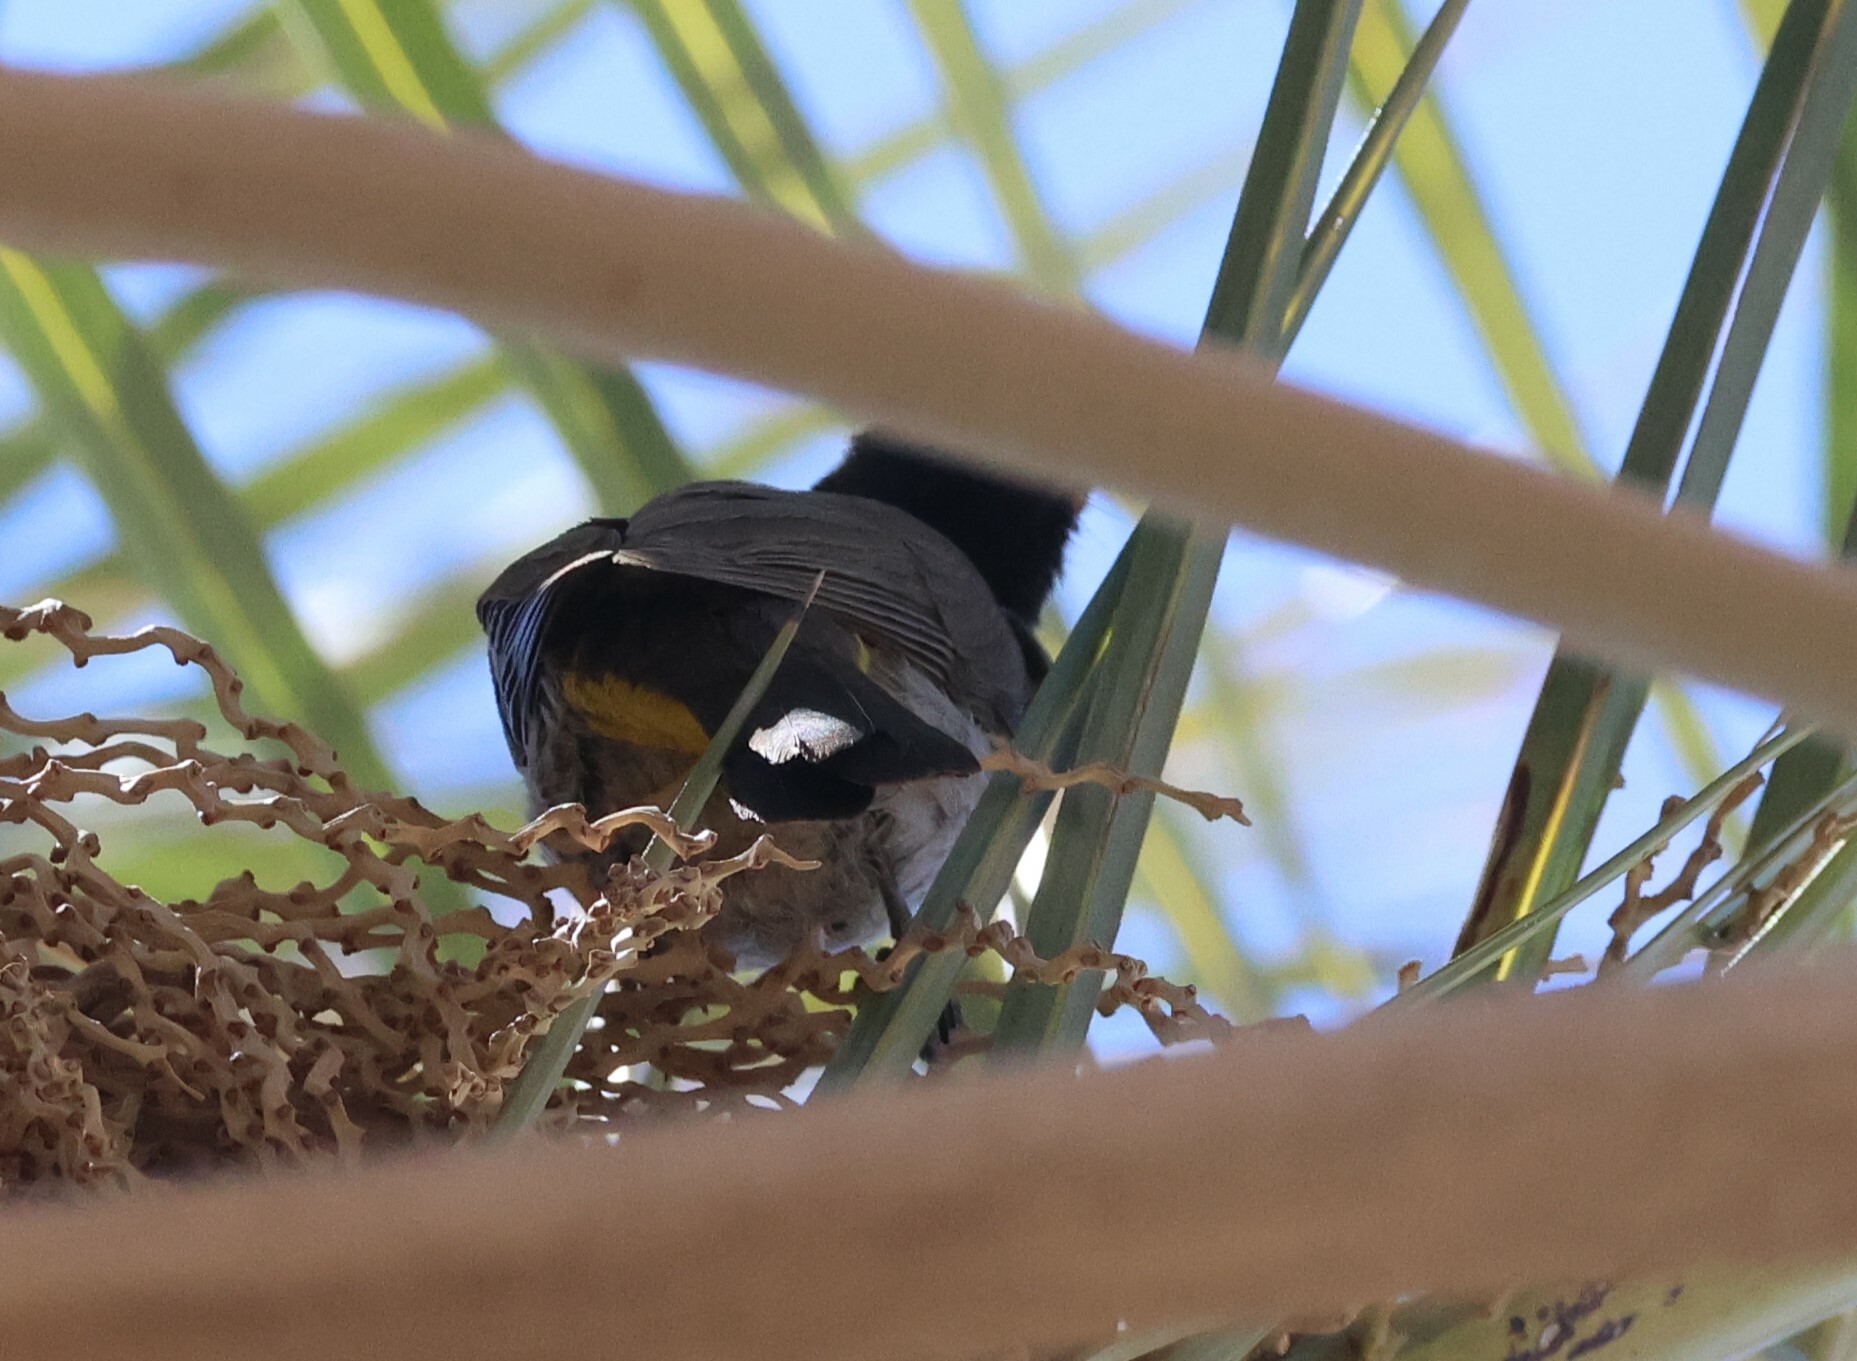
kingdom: Animalia
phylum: Chordata
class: Aves
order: Passeriformes
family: Pycnonotidae
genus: Pycnonotus
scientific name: Pycnonotus nigricans
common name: African red-eyed bulbul
